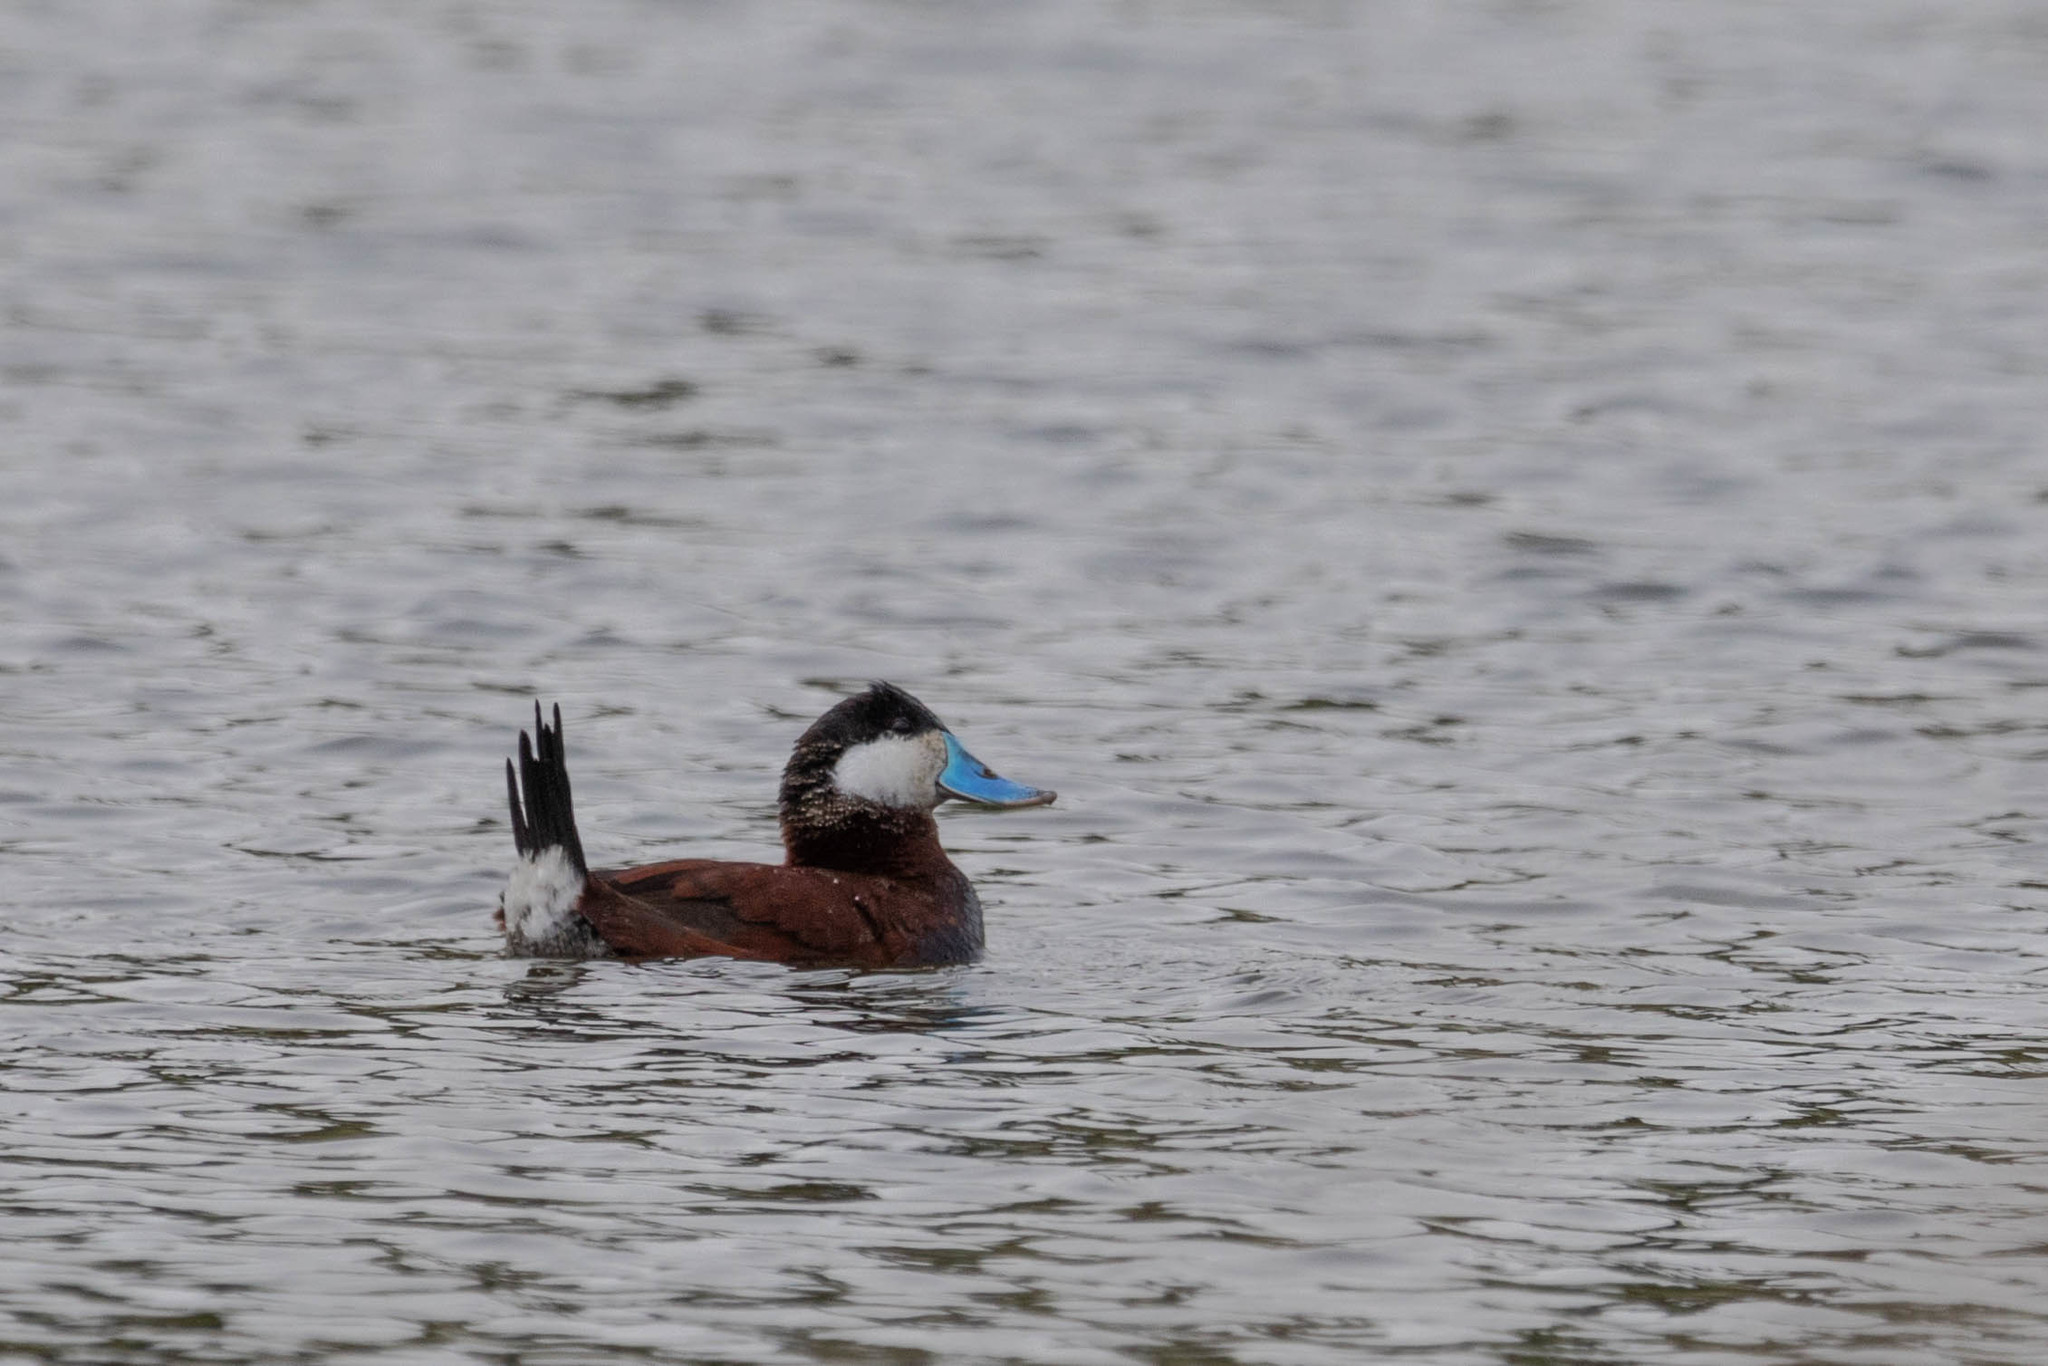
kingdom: Animalia
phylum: Chordata
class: Aves
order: Anseriformes
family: Anatidae
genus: Oxyura
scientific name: Oxyura jamaicensis
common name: Ruddy duck
